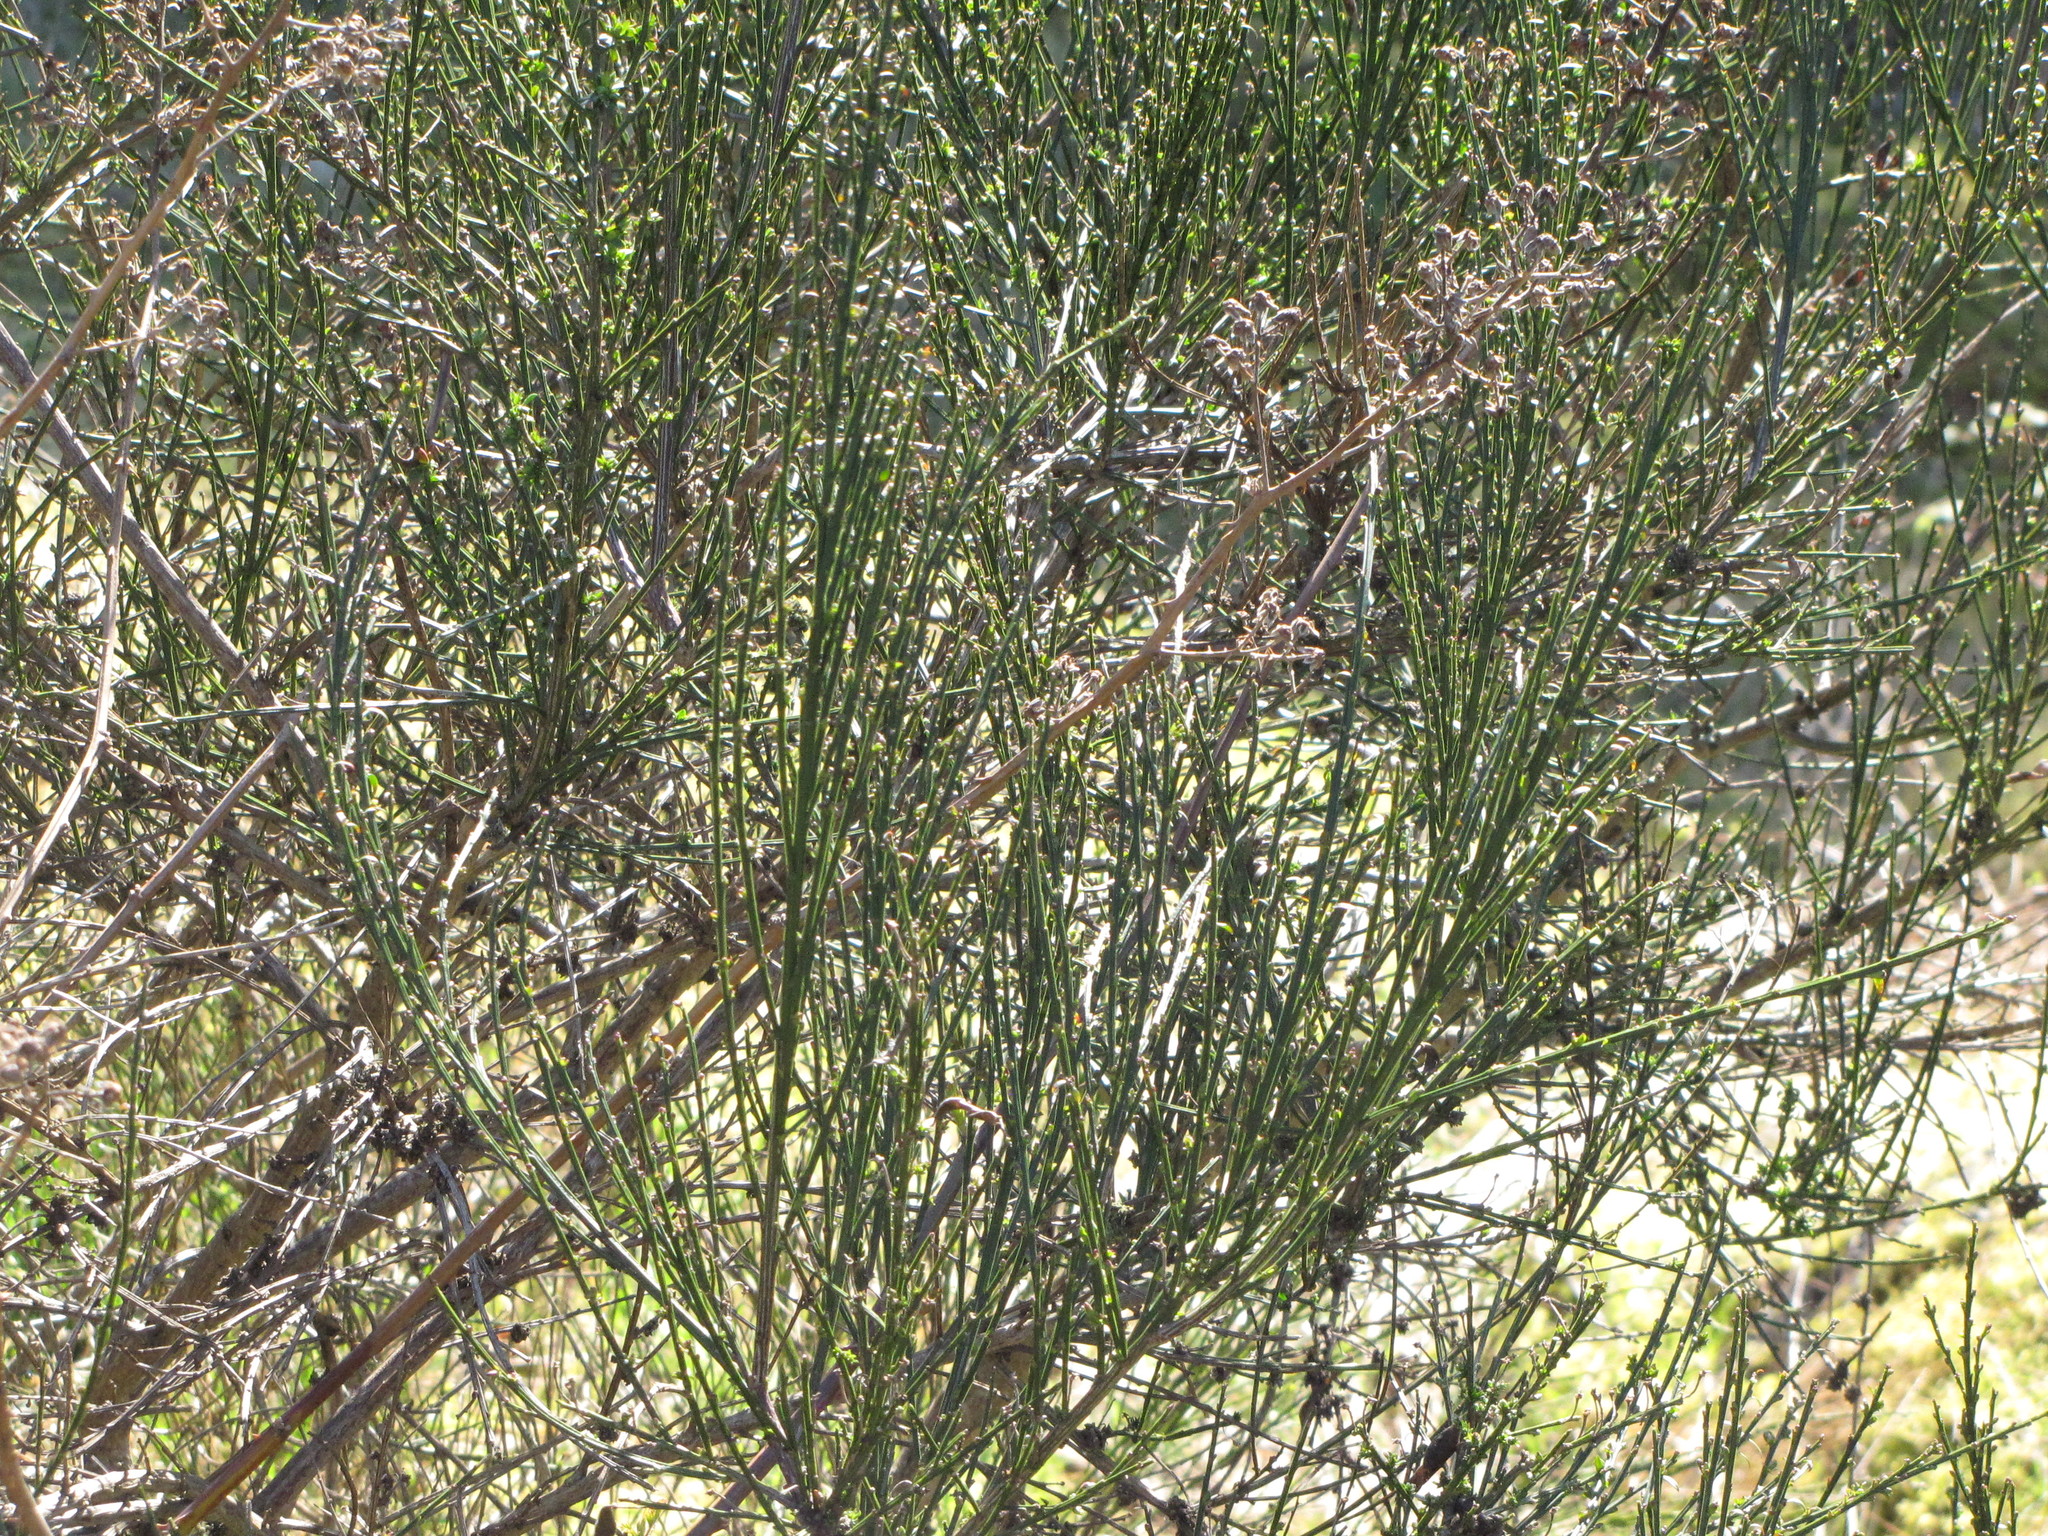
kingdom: Plantae
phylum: Tracheophyta
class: Magnoliopsida
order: Fabales
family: Fabaceae
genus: Cytisus
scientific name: Cytisus scoparius
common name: Scotch broom
